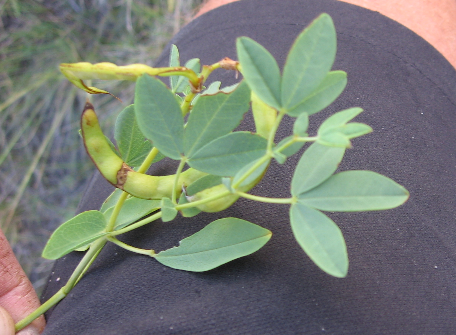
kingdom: Plantae
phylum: Tracheophyta
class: Magnoliopsida
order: Fabales
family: Fabaceae
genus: Thermopsis
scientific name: Thermopsis rhombifolia
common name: Circle-pod-pea
